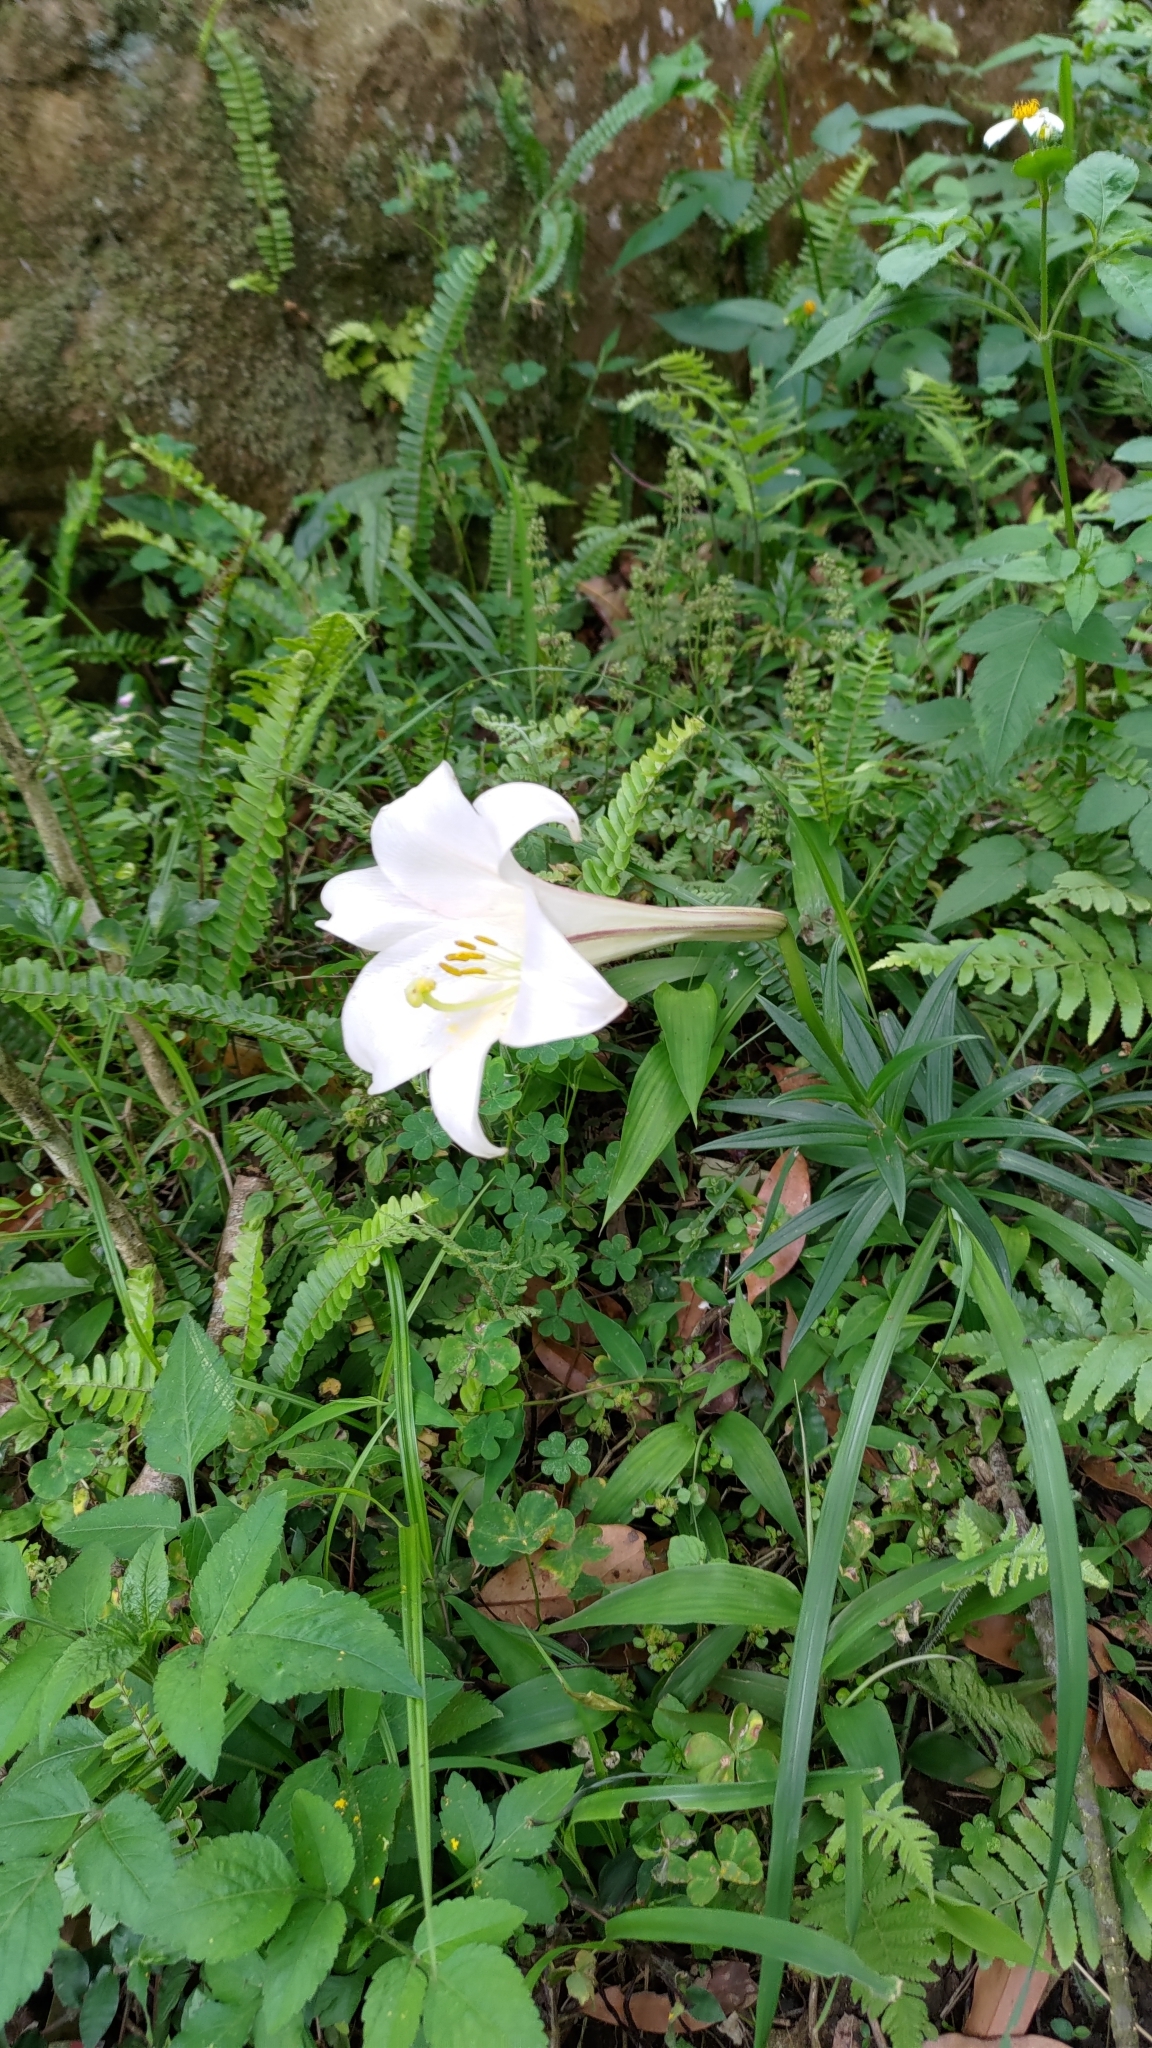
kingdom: Plantae
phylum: Tracheophyta
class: Liliopsida
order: Liliales
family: Liliaceae
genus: Lilium
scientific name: Lilium longiflorum
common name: Easter lily
